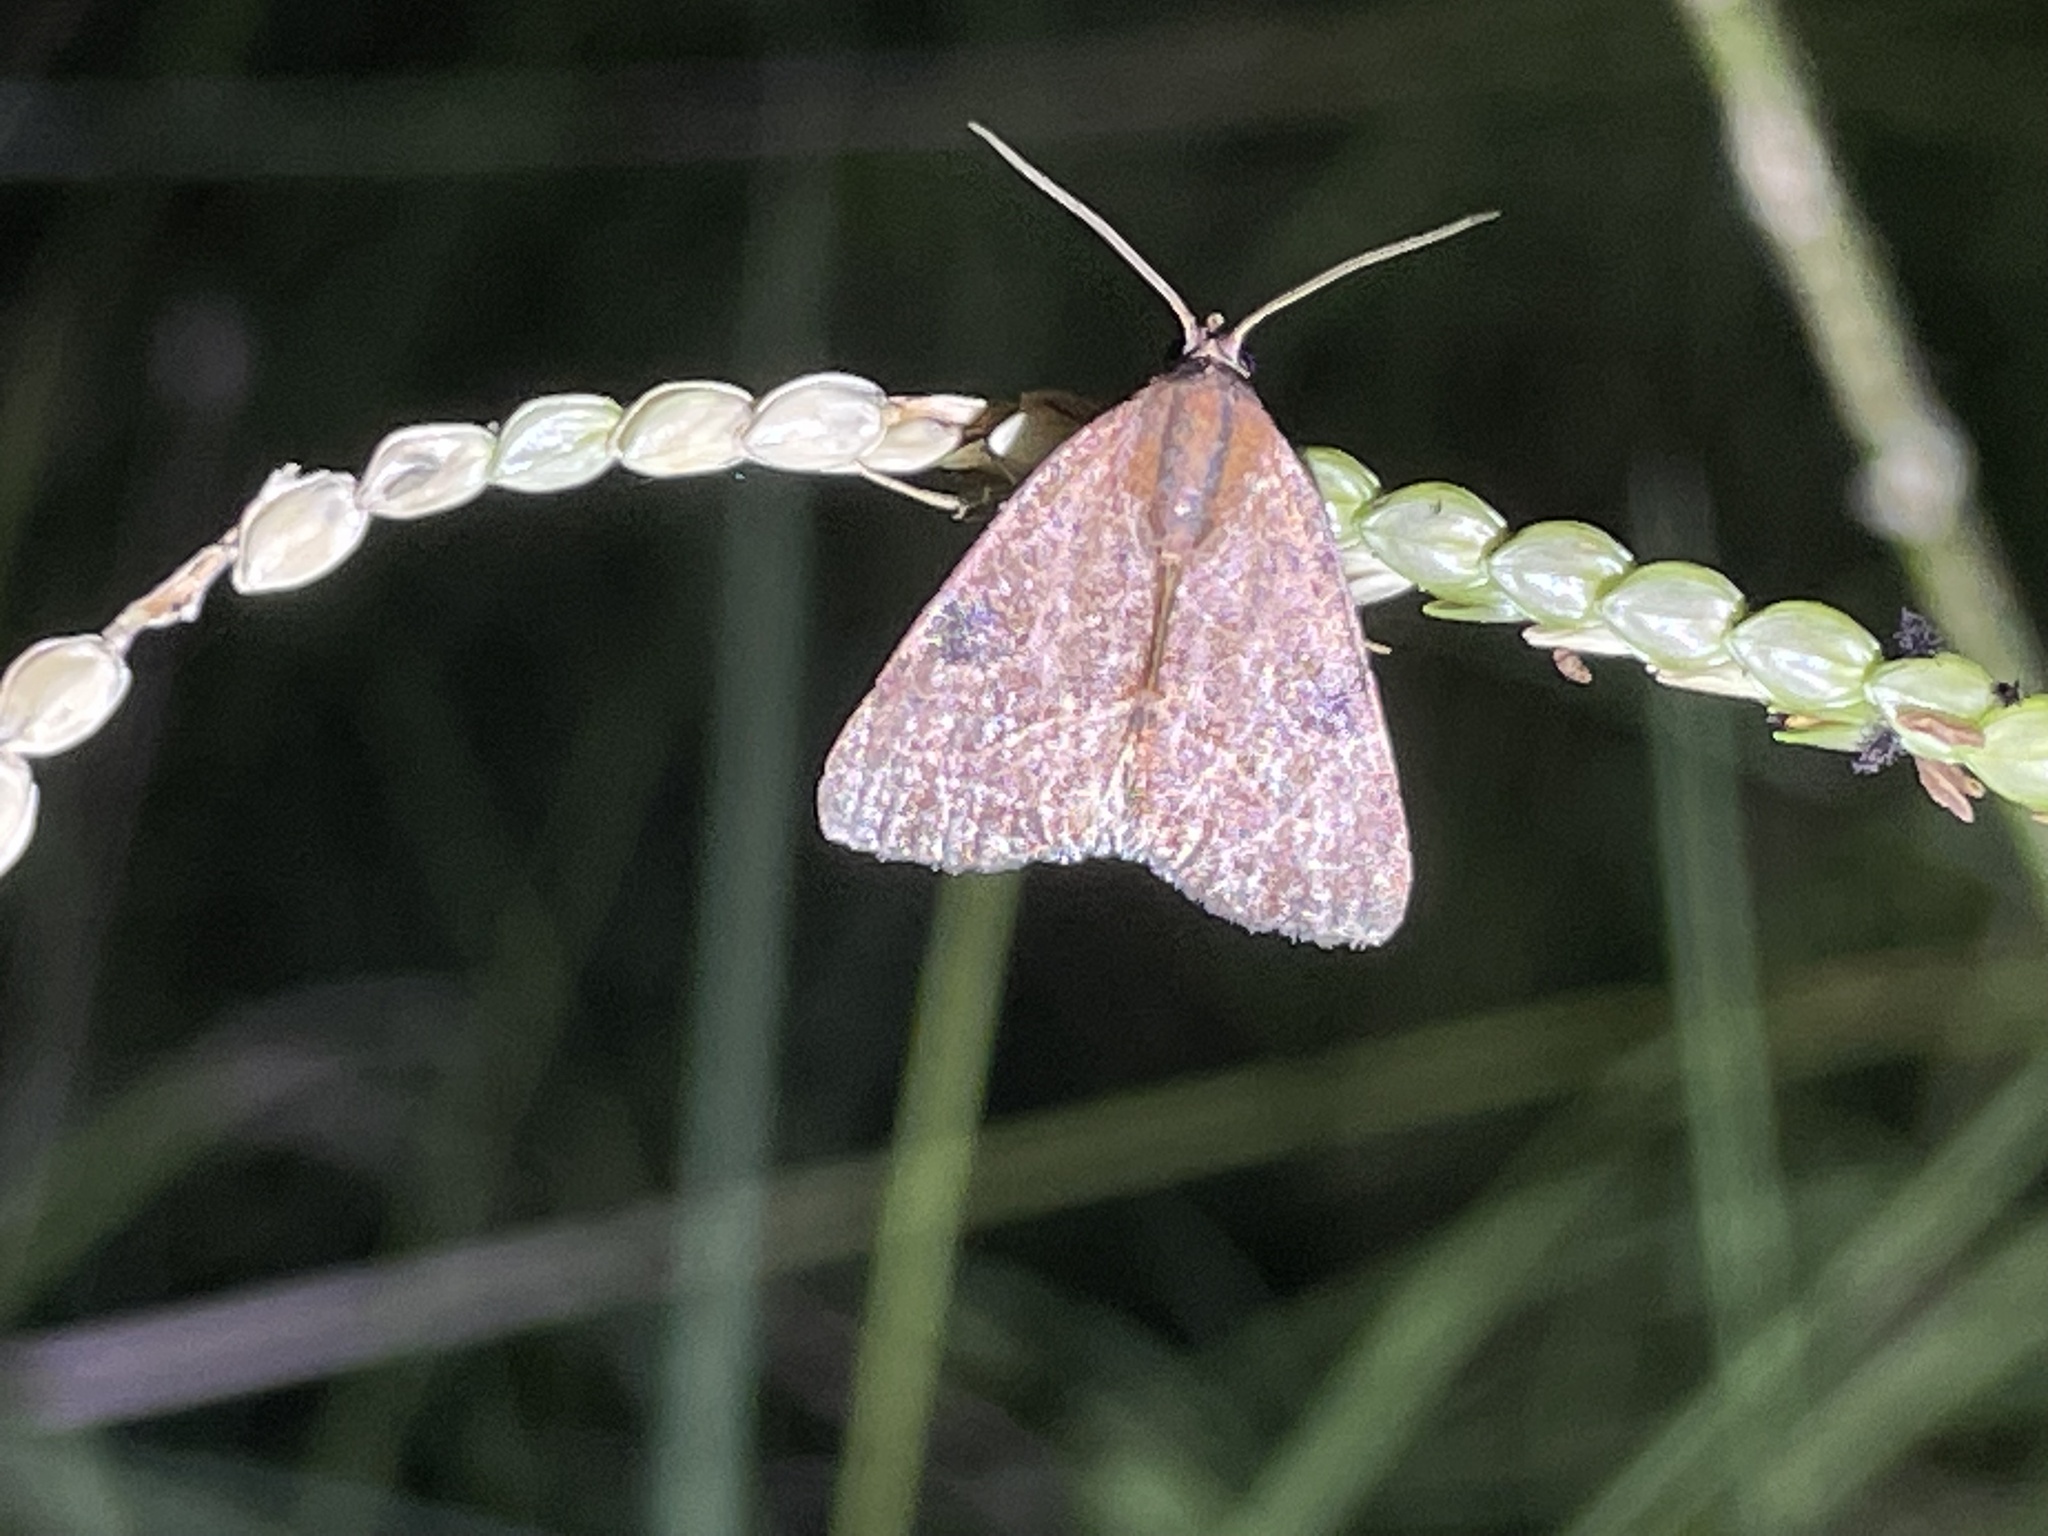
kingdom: Animalia
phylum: Arthropoda
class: Insecta
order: Lepidoptera
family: Noctuidae
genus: Galgula
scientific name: Galgula partita
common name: Wedgeling
